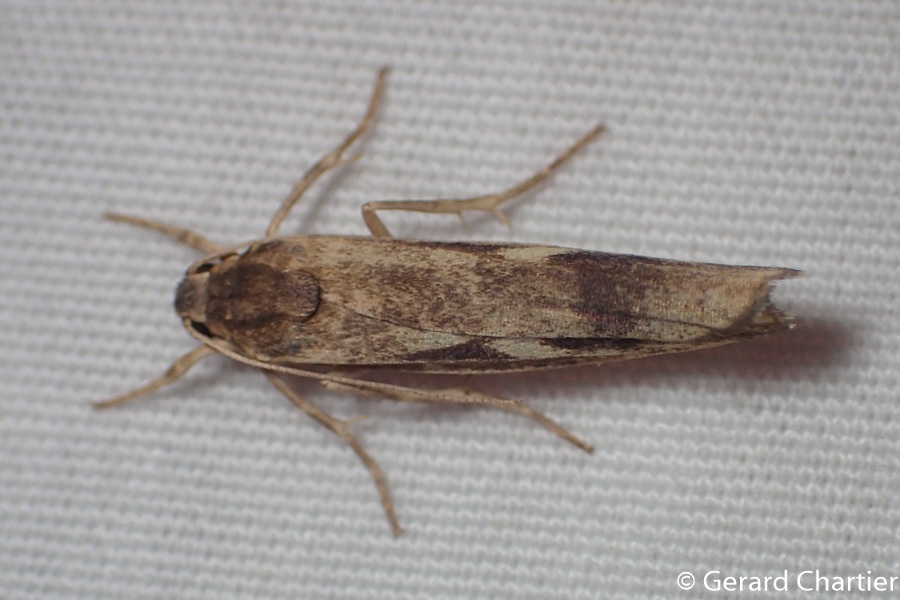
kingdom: Animalia
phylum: Arthropoda
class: Insecta
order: Lepidoptera
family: Erebidae
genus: Chrysoscota
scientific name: Chrysoscota cotriangulata
